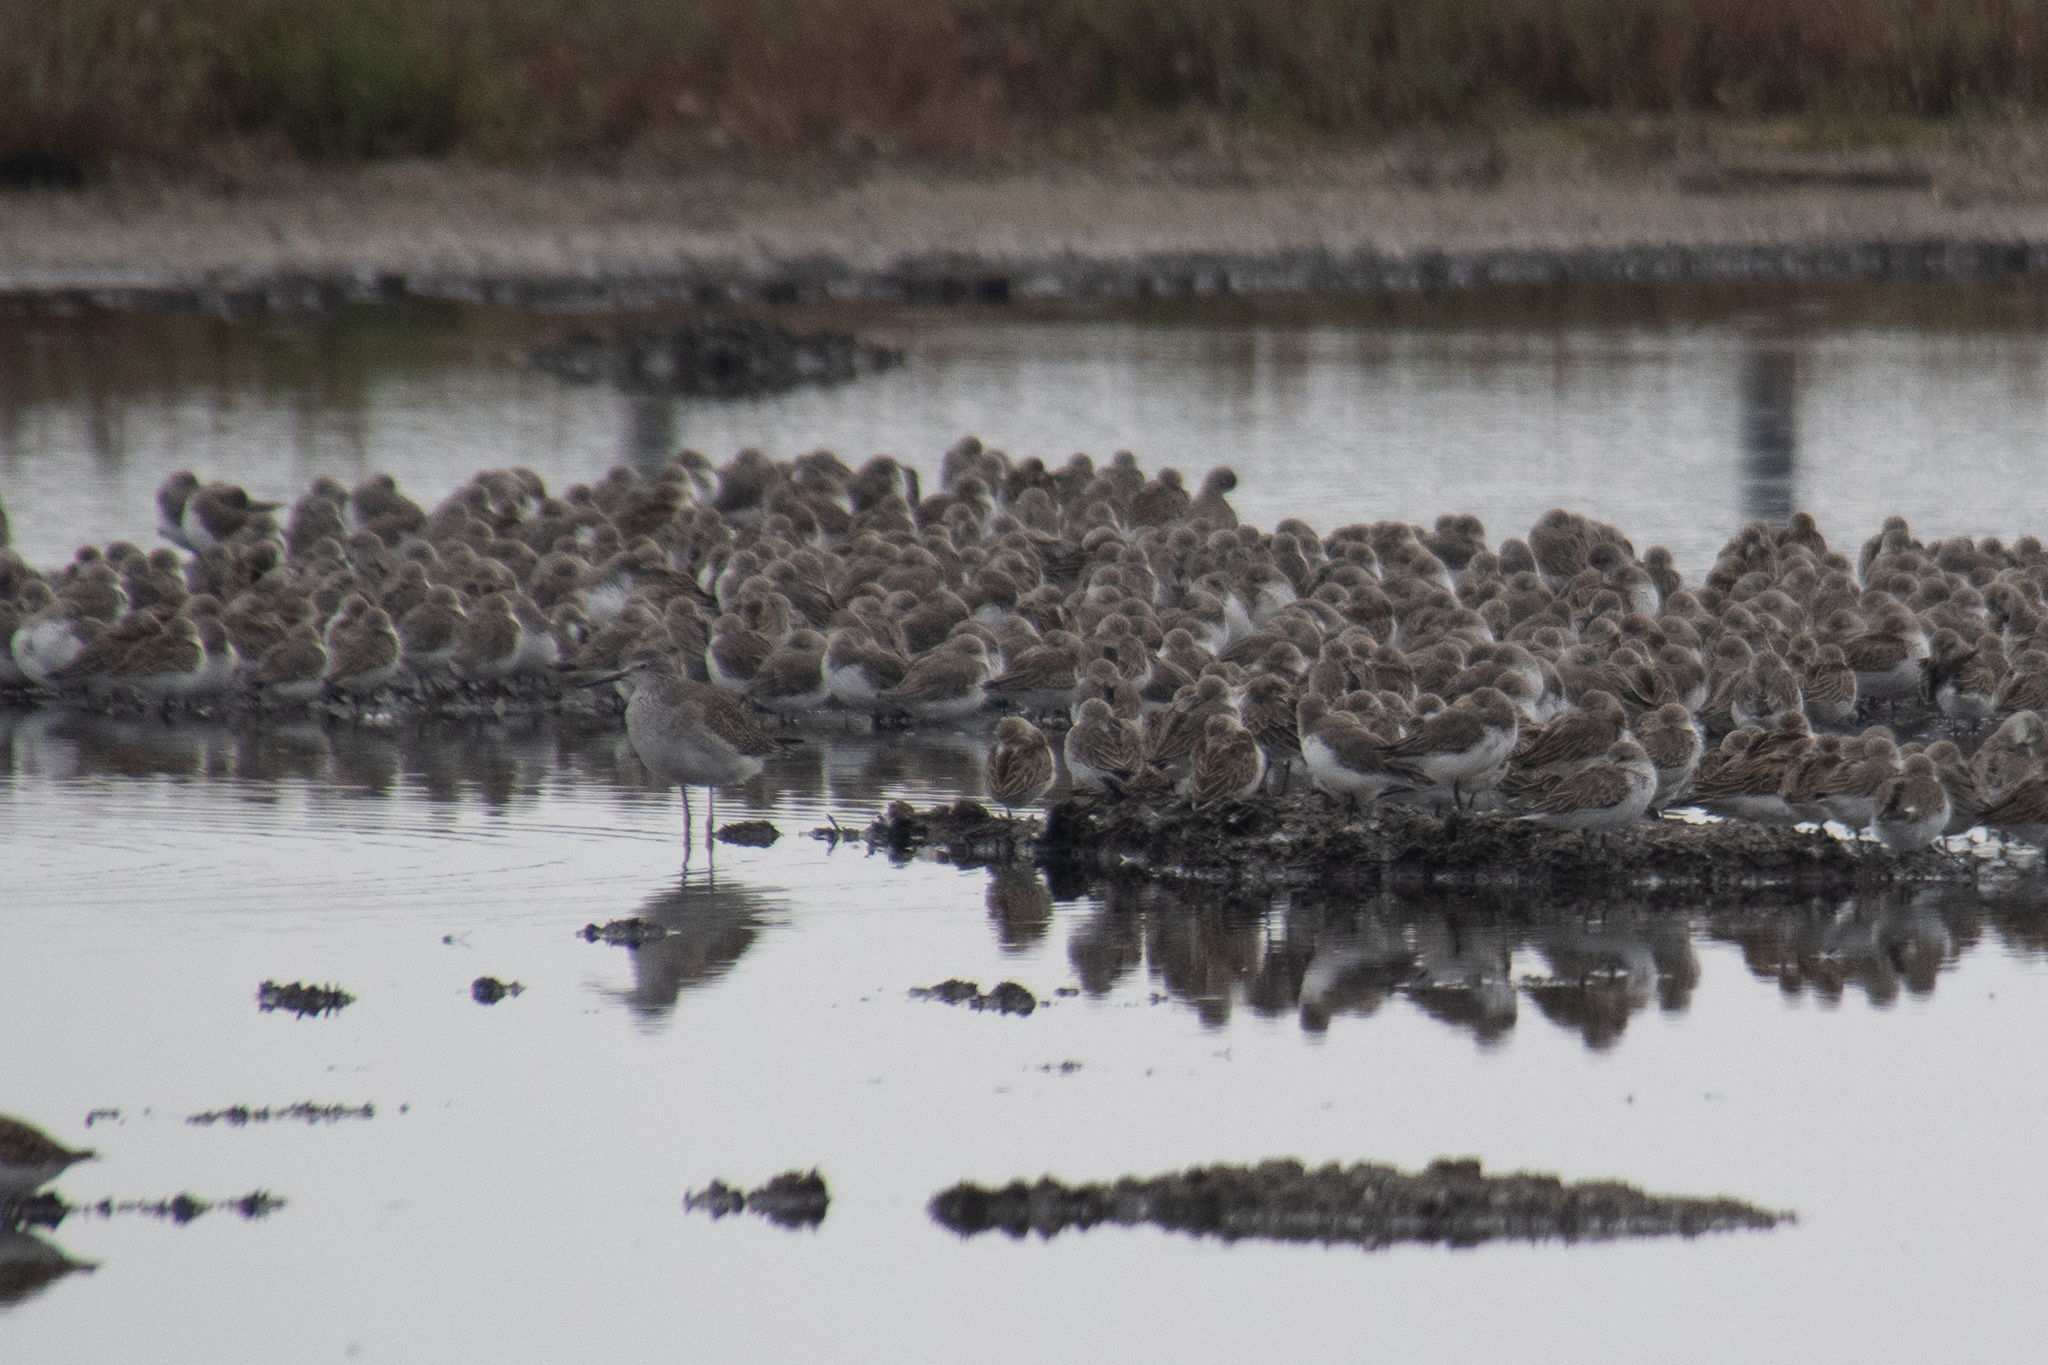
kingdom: Animalia
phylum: Chordata
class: Aves
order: Charadriiformes
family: Scolopacidae
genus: Calidris
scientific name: Calidris mauri
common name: Western sandpiper
